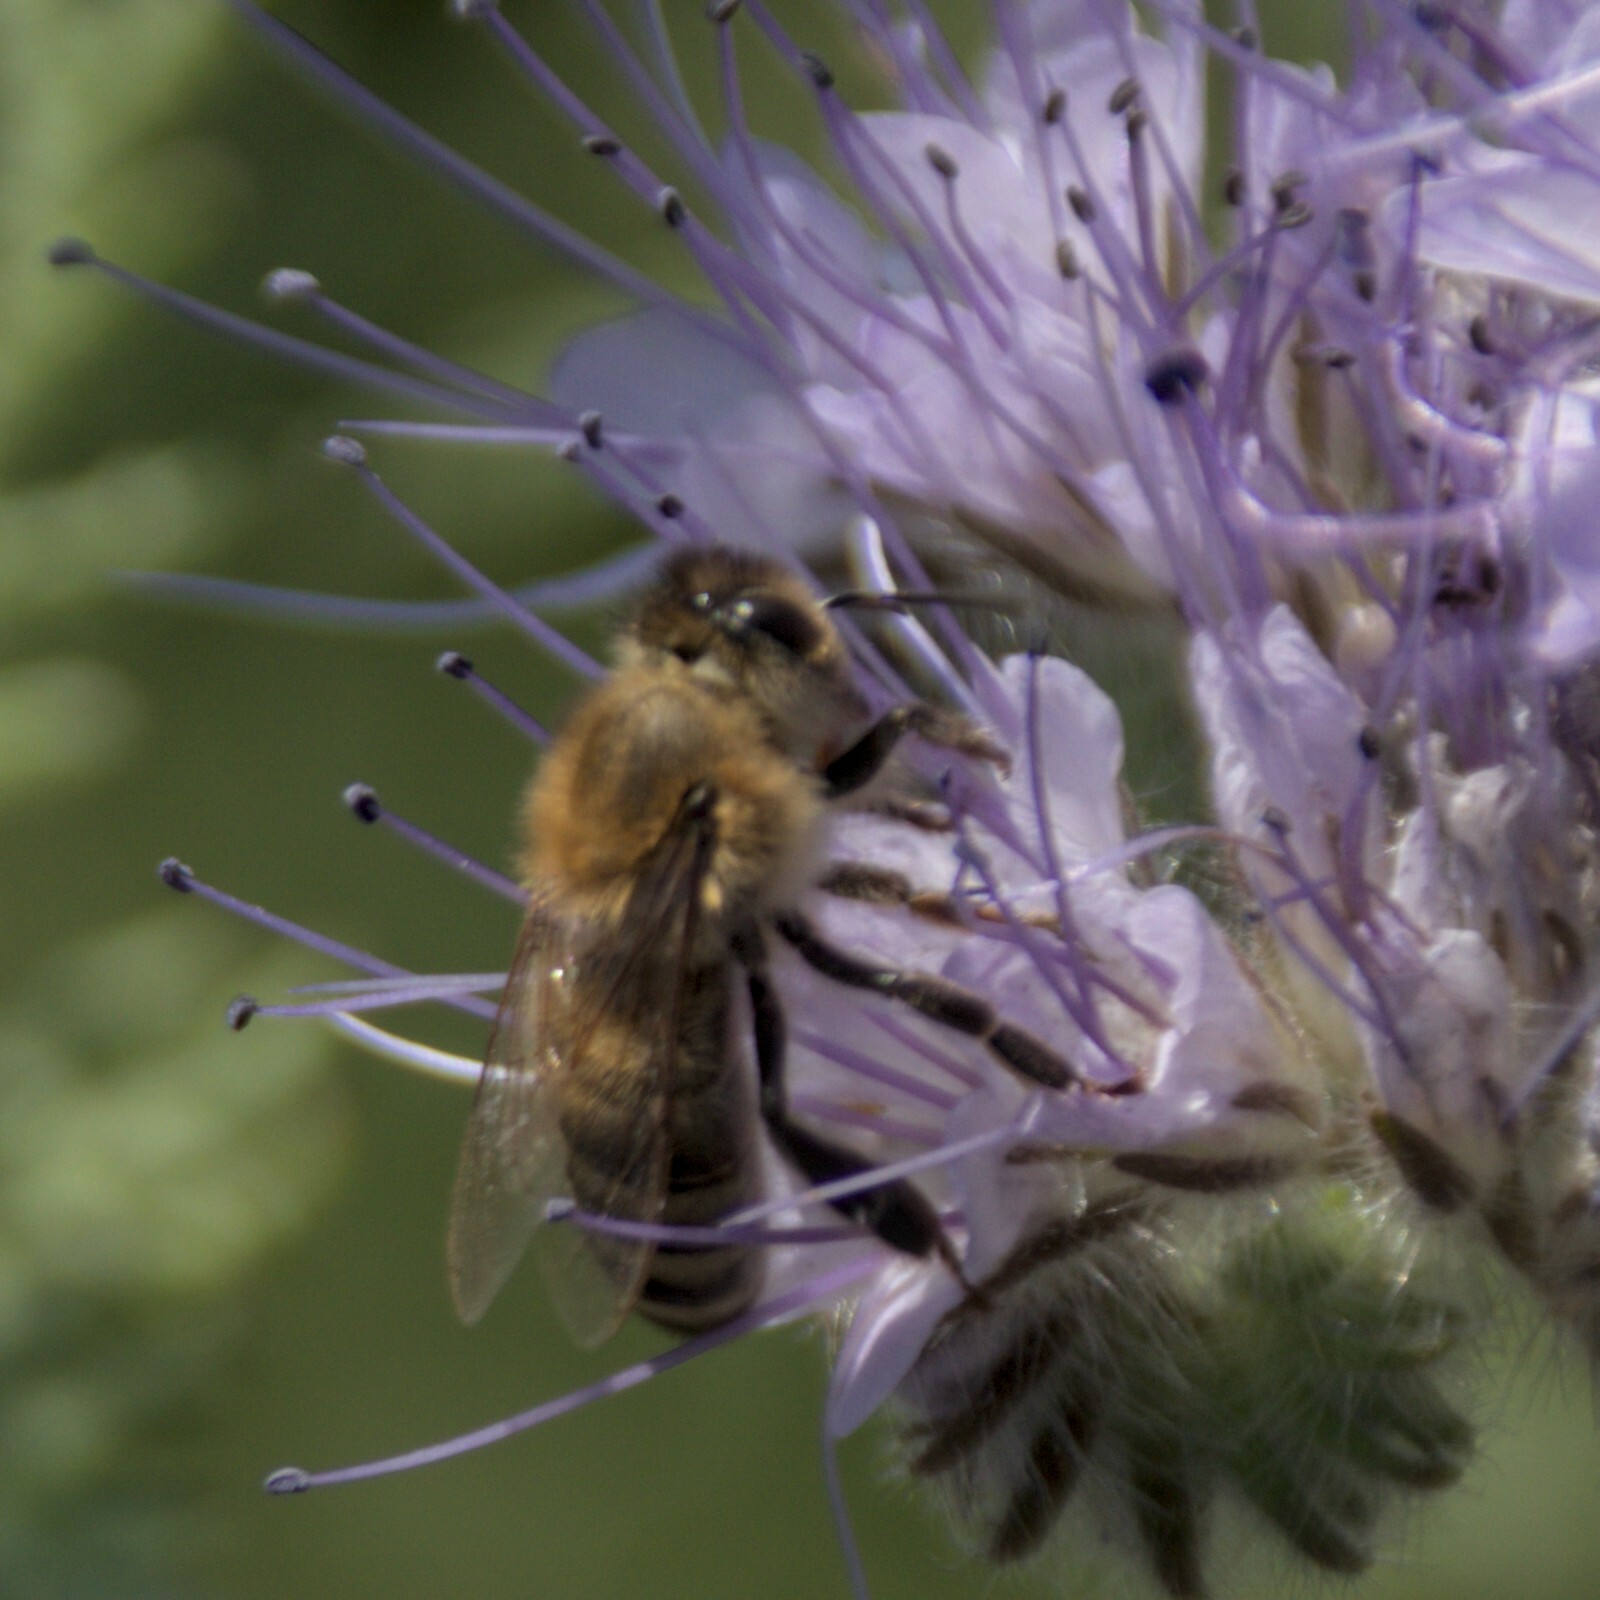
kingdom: Animalia
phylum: Arthropoda
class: Insecta
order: Hymenoptera
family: Apidae
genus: Apis
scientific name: Apis mellifera
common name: Honey bee
